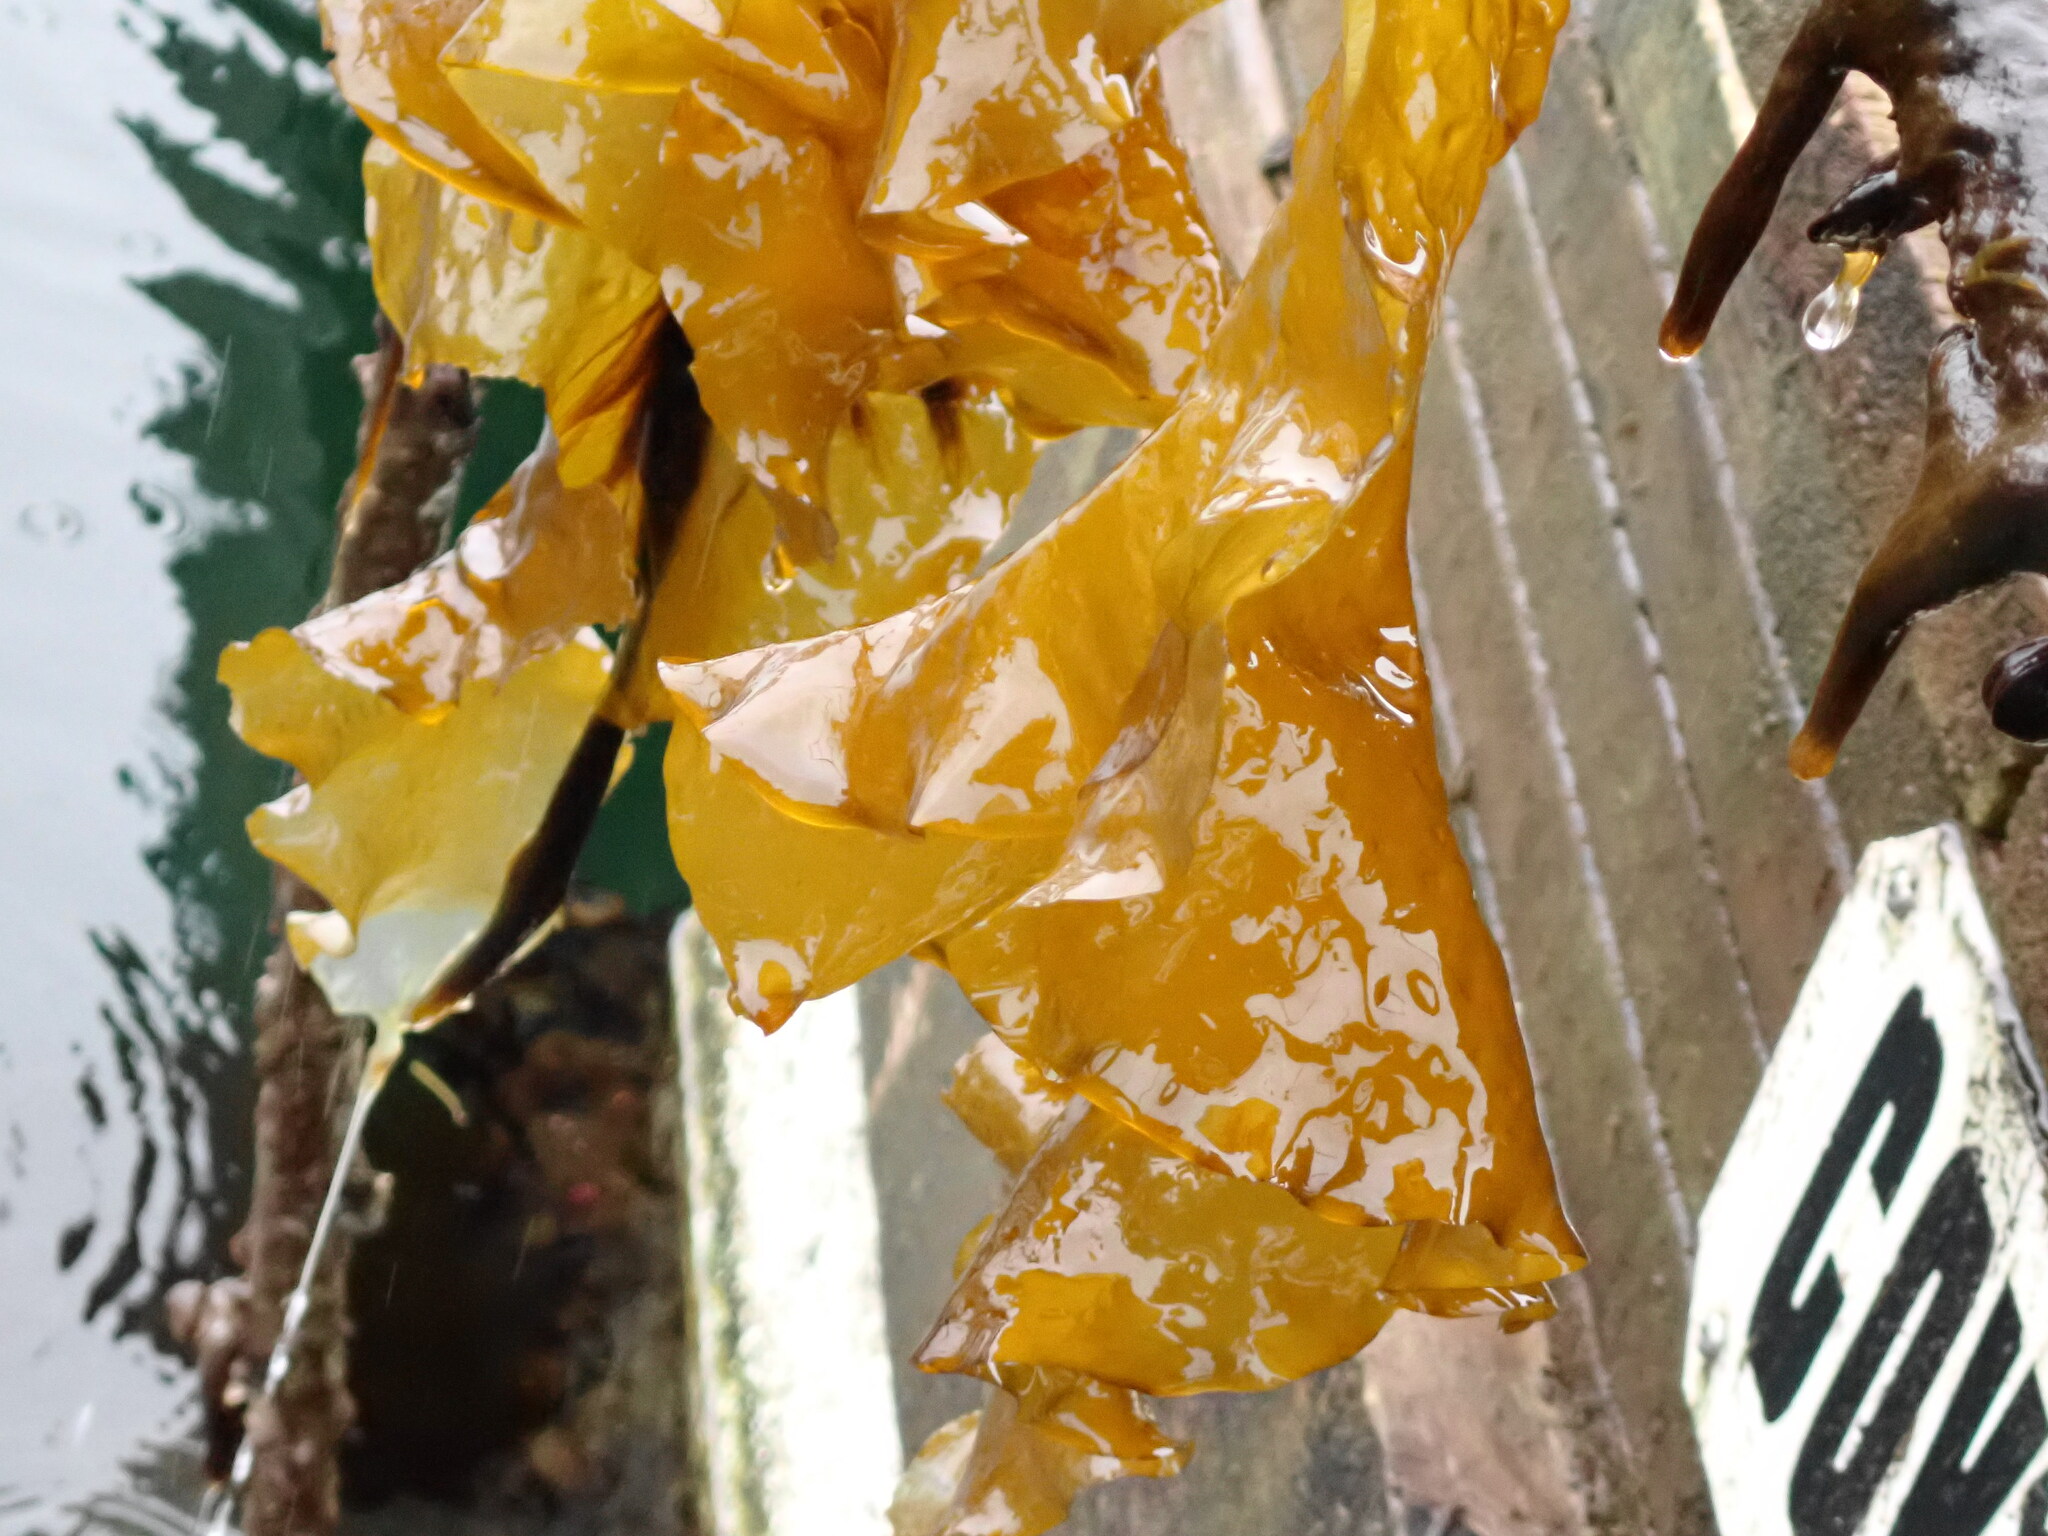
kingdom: Chromista
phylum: Ochrophyta
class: Phaeophyceae
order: Laminariales
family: Laminariaceae
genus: Saccharina
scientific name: Saccharina latissima
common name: Poor man's weather glass
